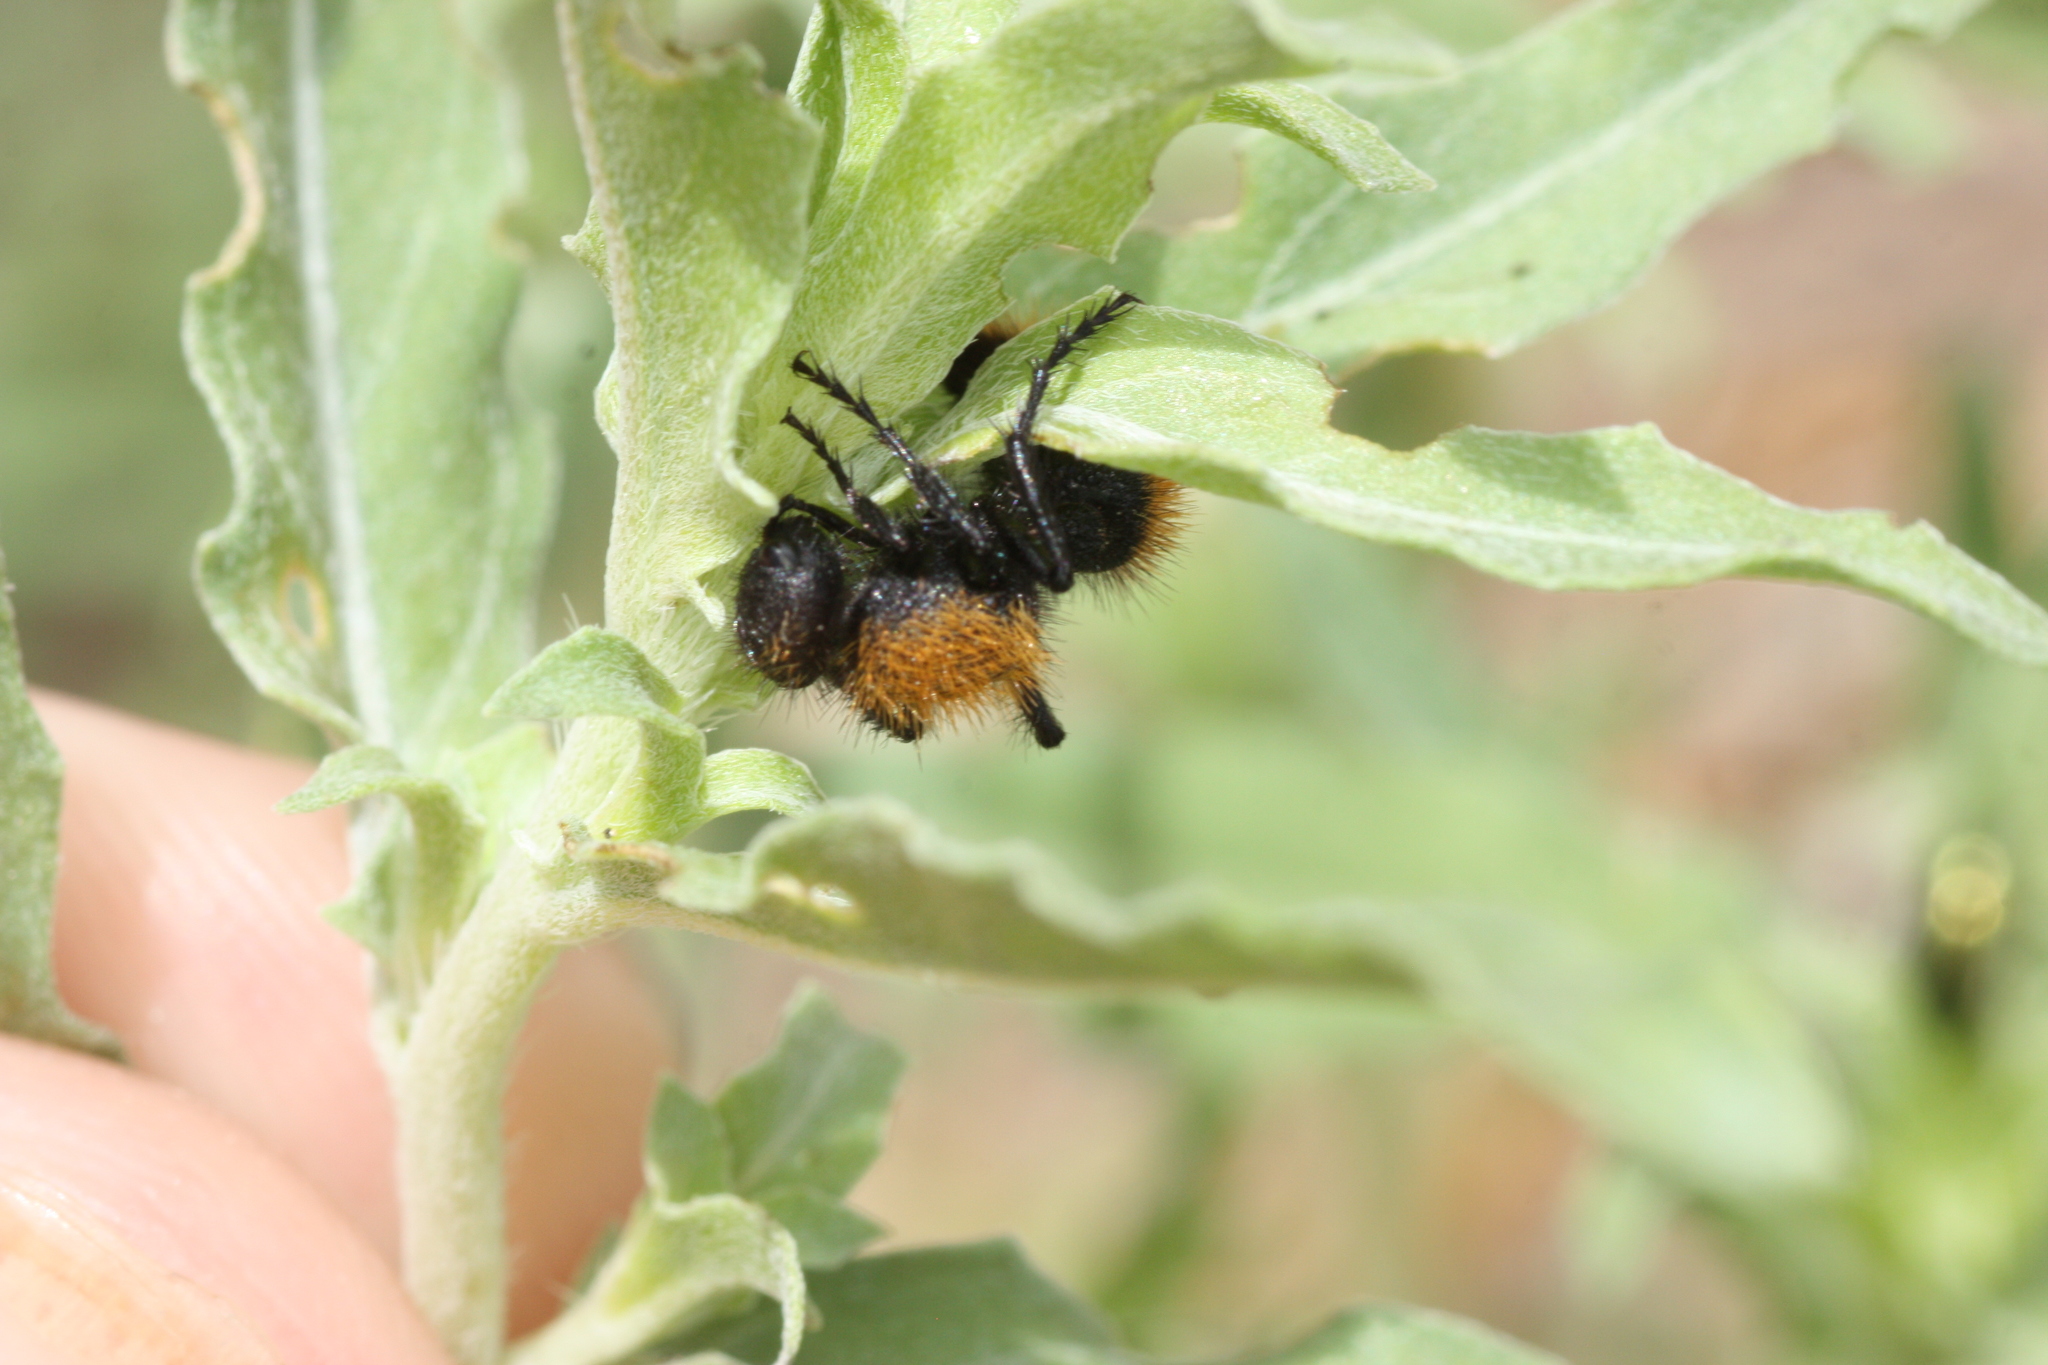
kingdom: Animalia
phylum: Arthropoda
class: Insecta
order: Hymenoptera
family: Mutillidae
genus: Dasymutilla
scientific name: Dasymutilla
